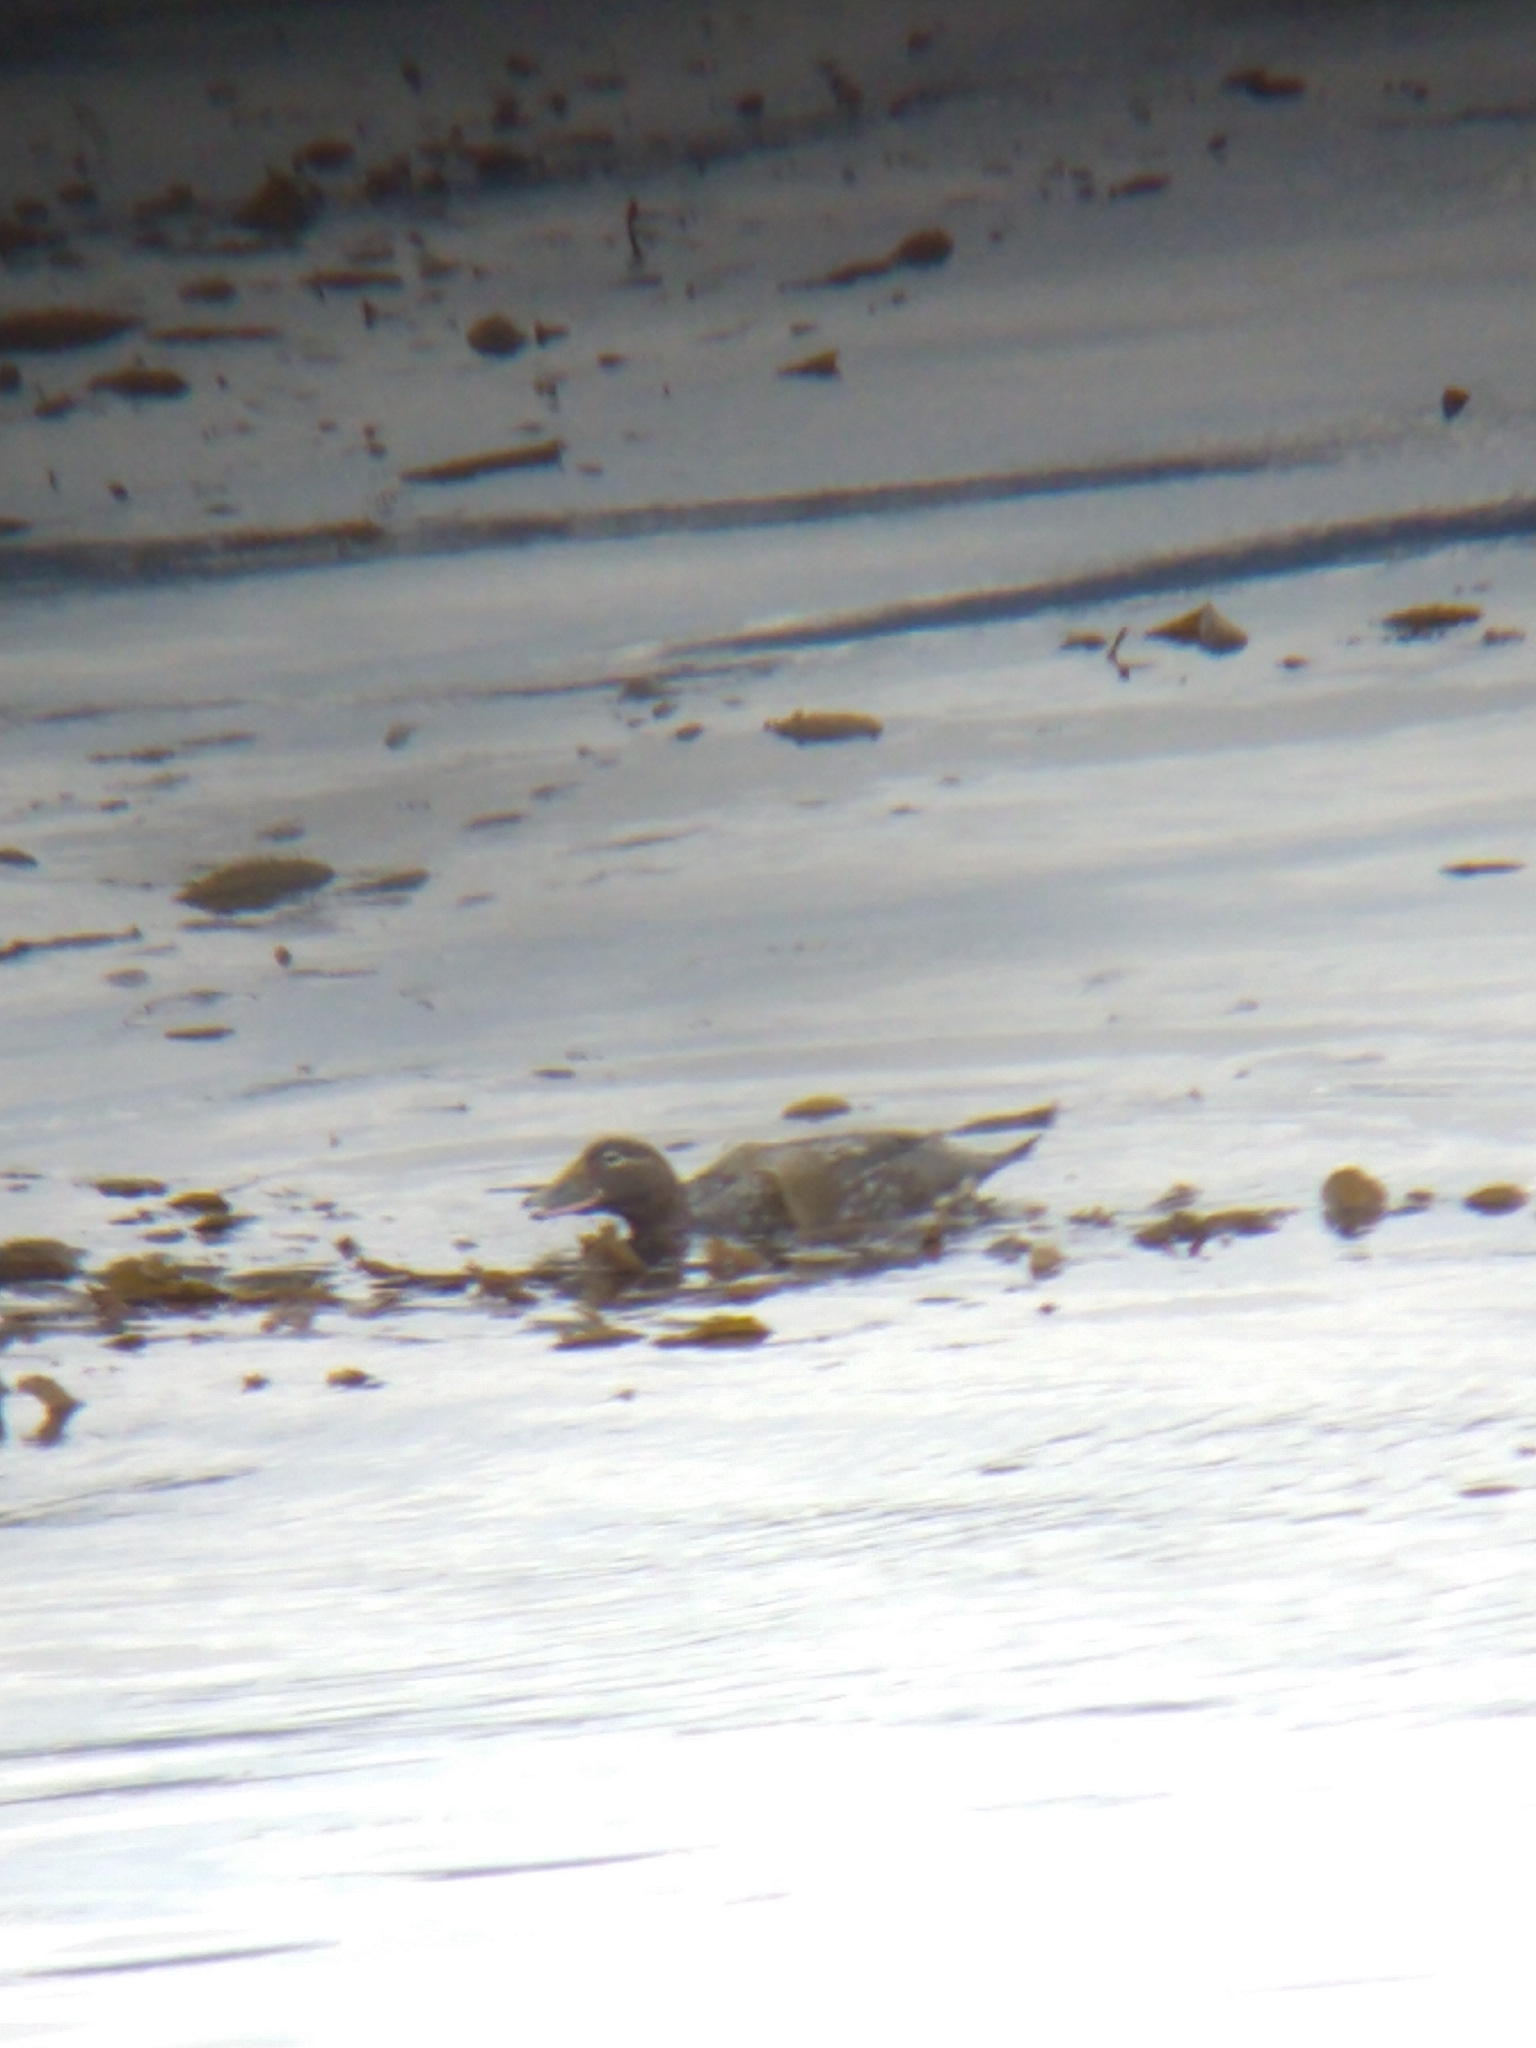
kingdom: Animalia
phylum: Chordata
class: Aves
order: Anseriformes
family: Anatidae
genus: Tachyeres
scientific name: Tachyeres patachonicus
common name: Flying steamer duck
